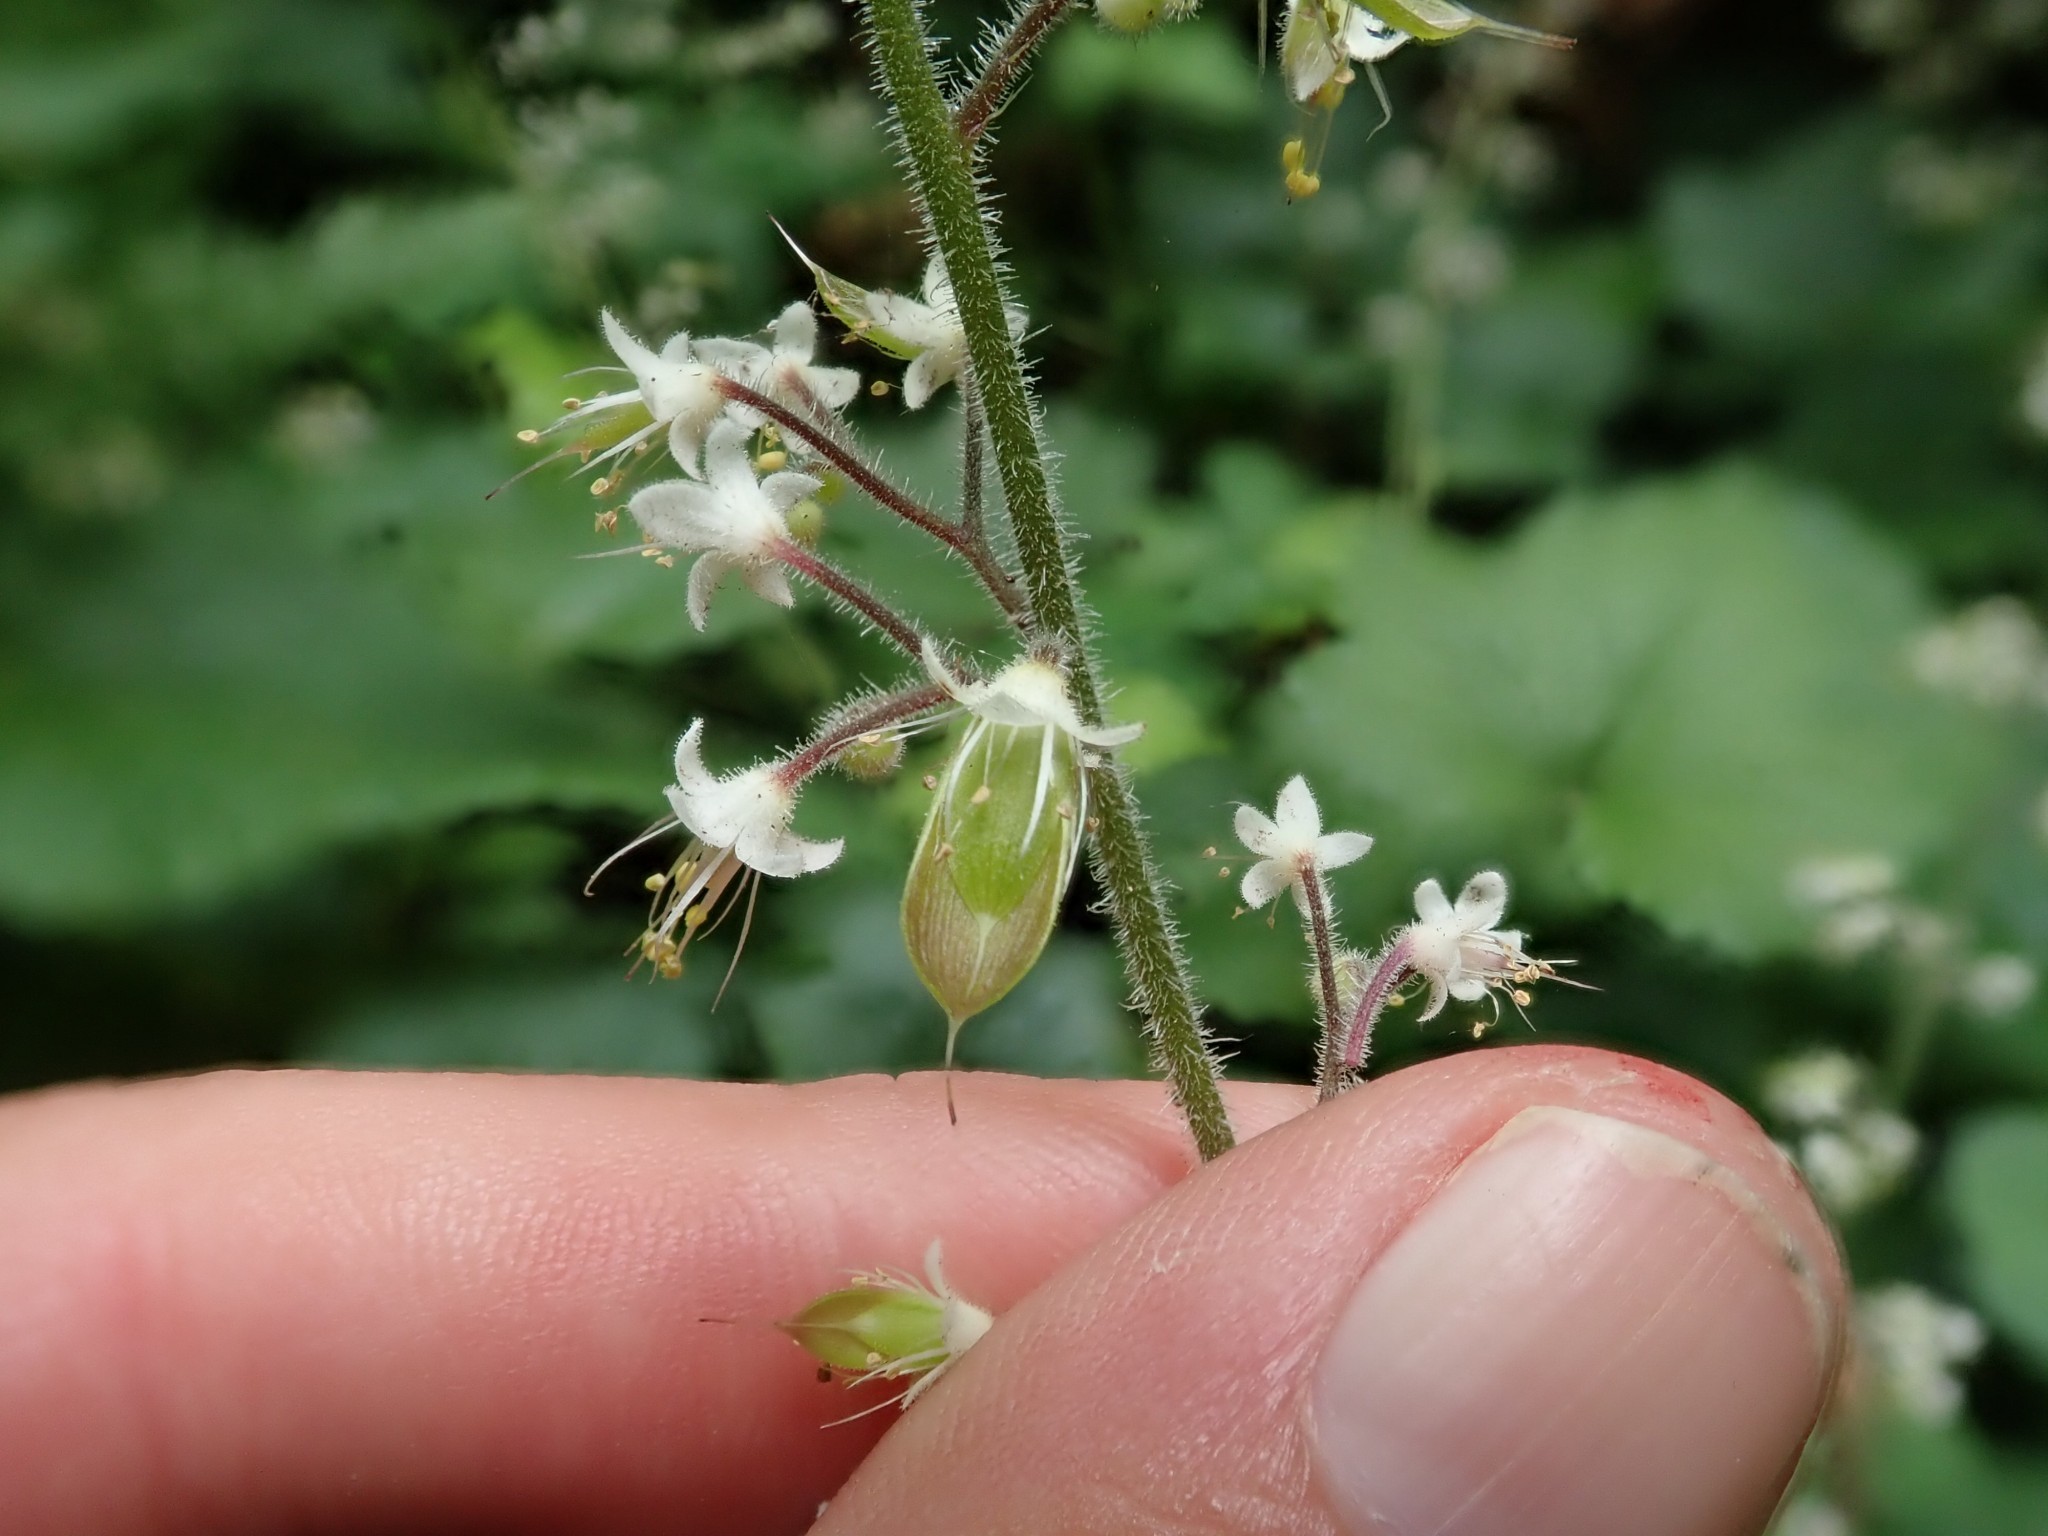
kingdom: Plantae
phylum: Tracheophyta
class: Magnoliopsida
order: Saxifragales
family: Saxifragaceae
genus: Tiarella
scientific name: Tiarella trifoliata
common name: Sugar-scoop
